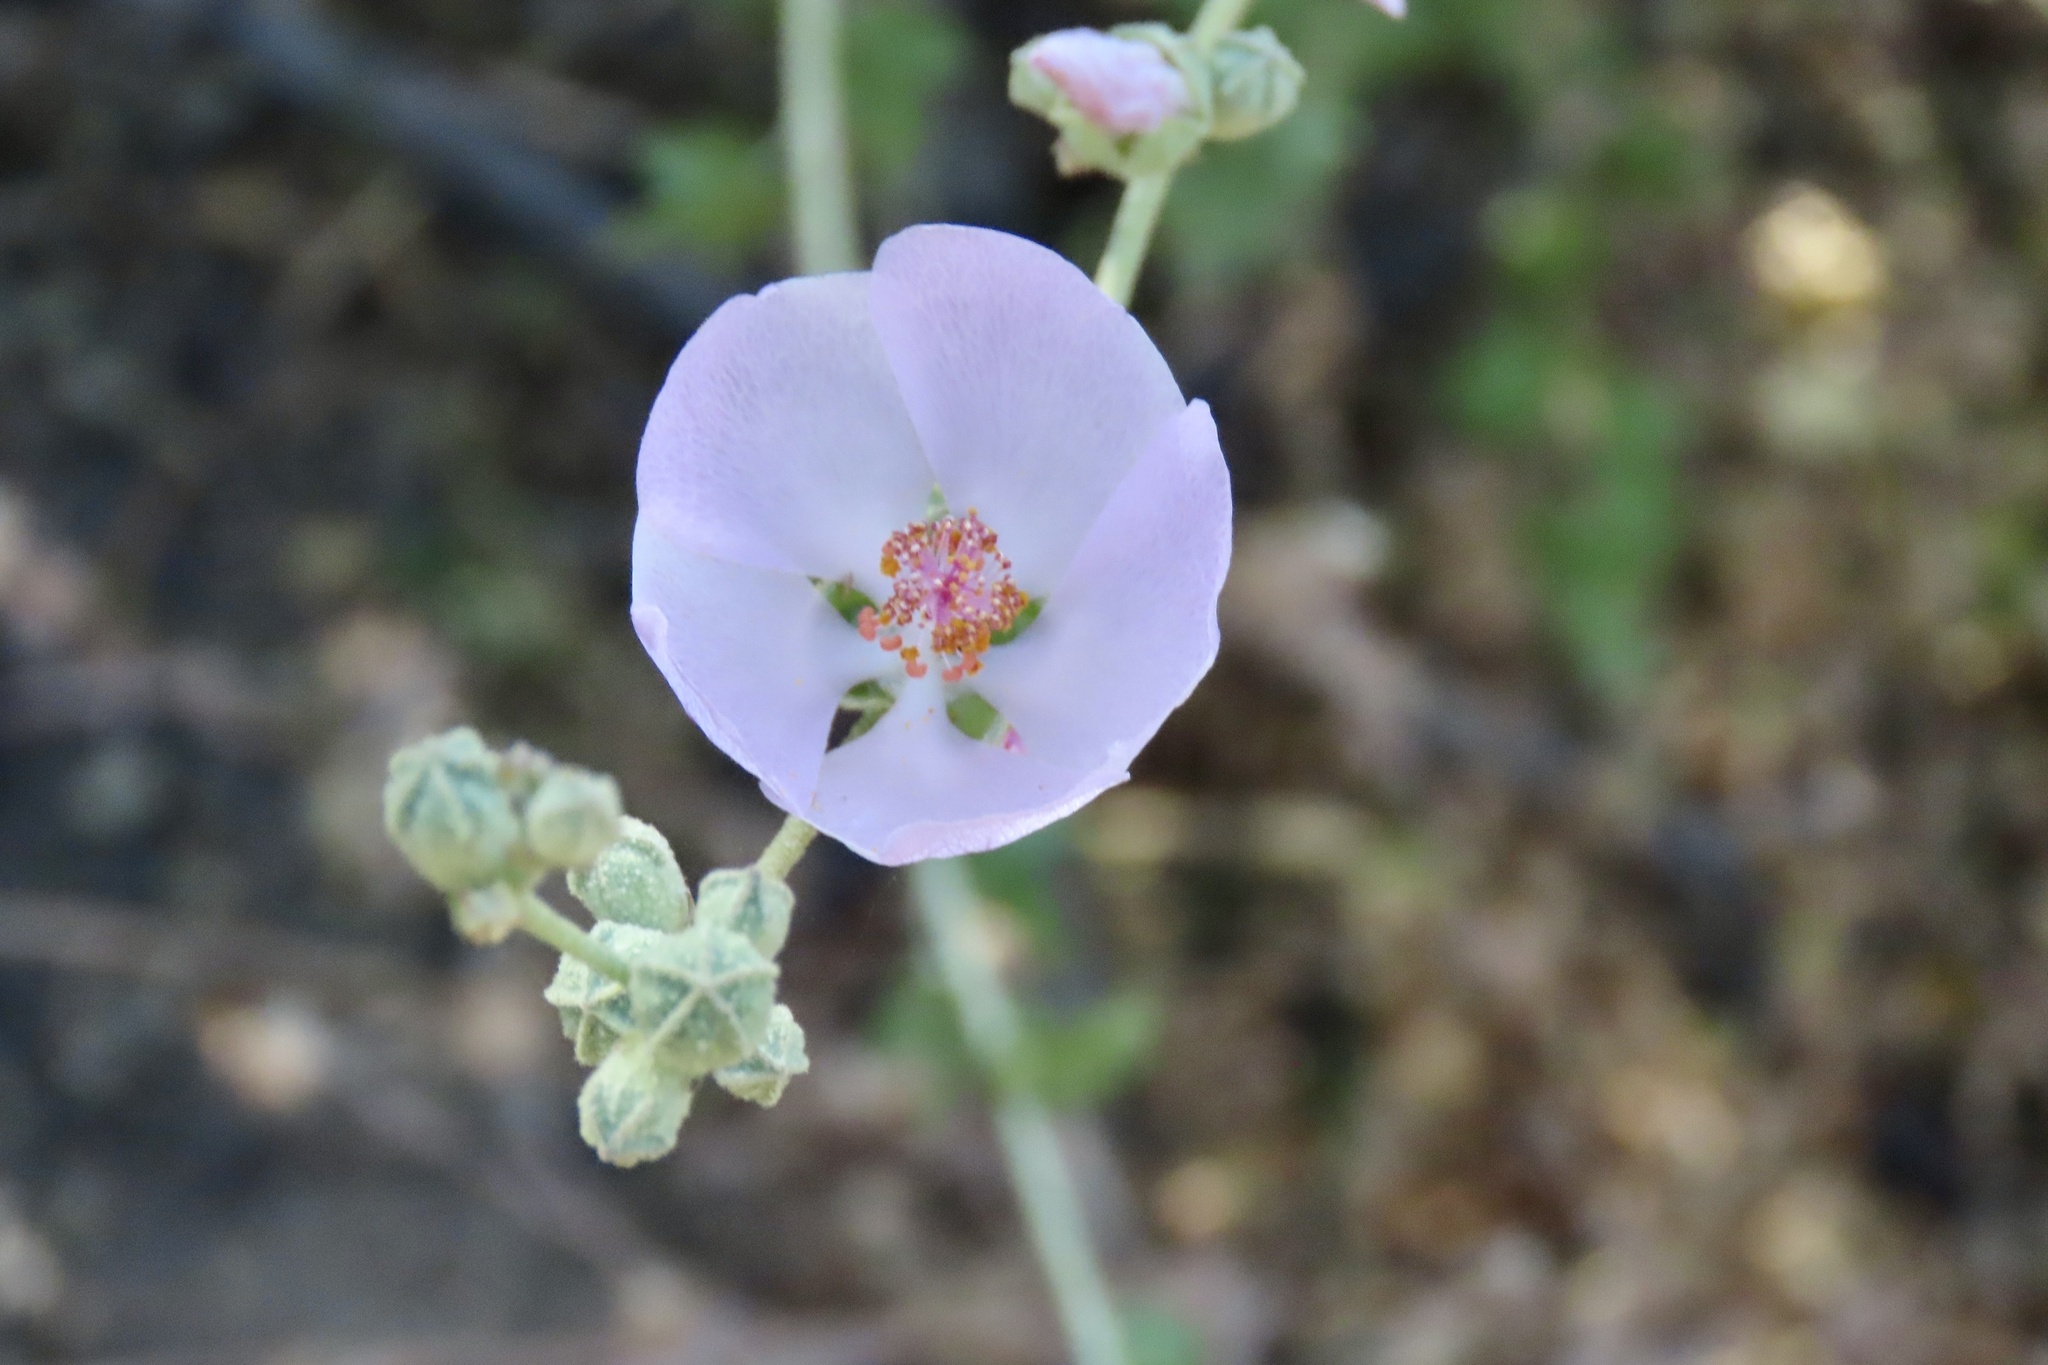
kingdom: Plantae
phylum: Tracheophyta
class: Magnoliopsida
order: Malvales
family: Malvaceae
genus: Malacothamnus
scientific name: Malacothamnus fasciculatus
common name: Sant cruz island bush-mallow
